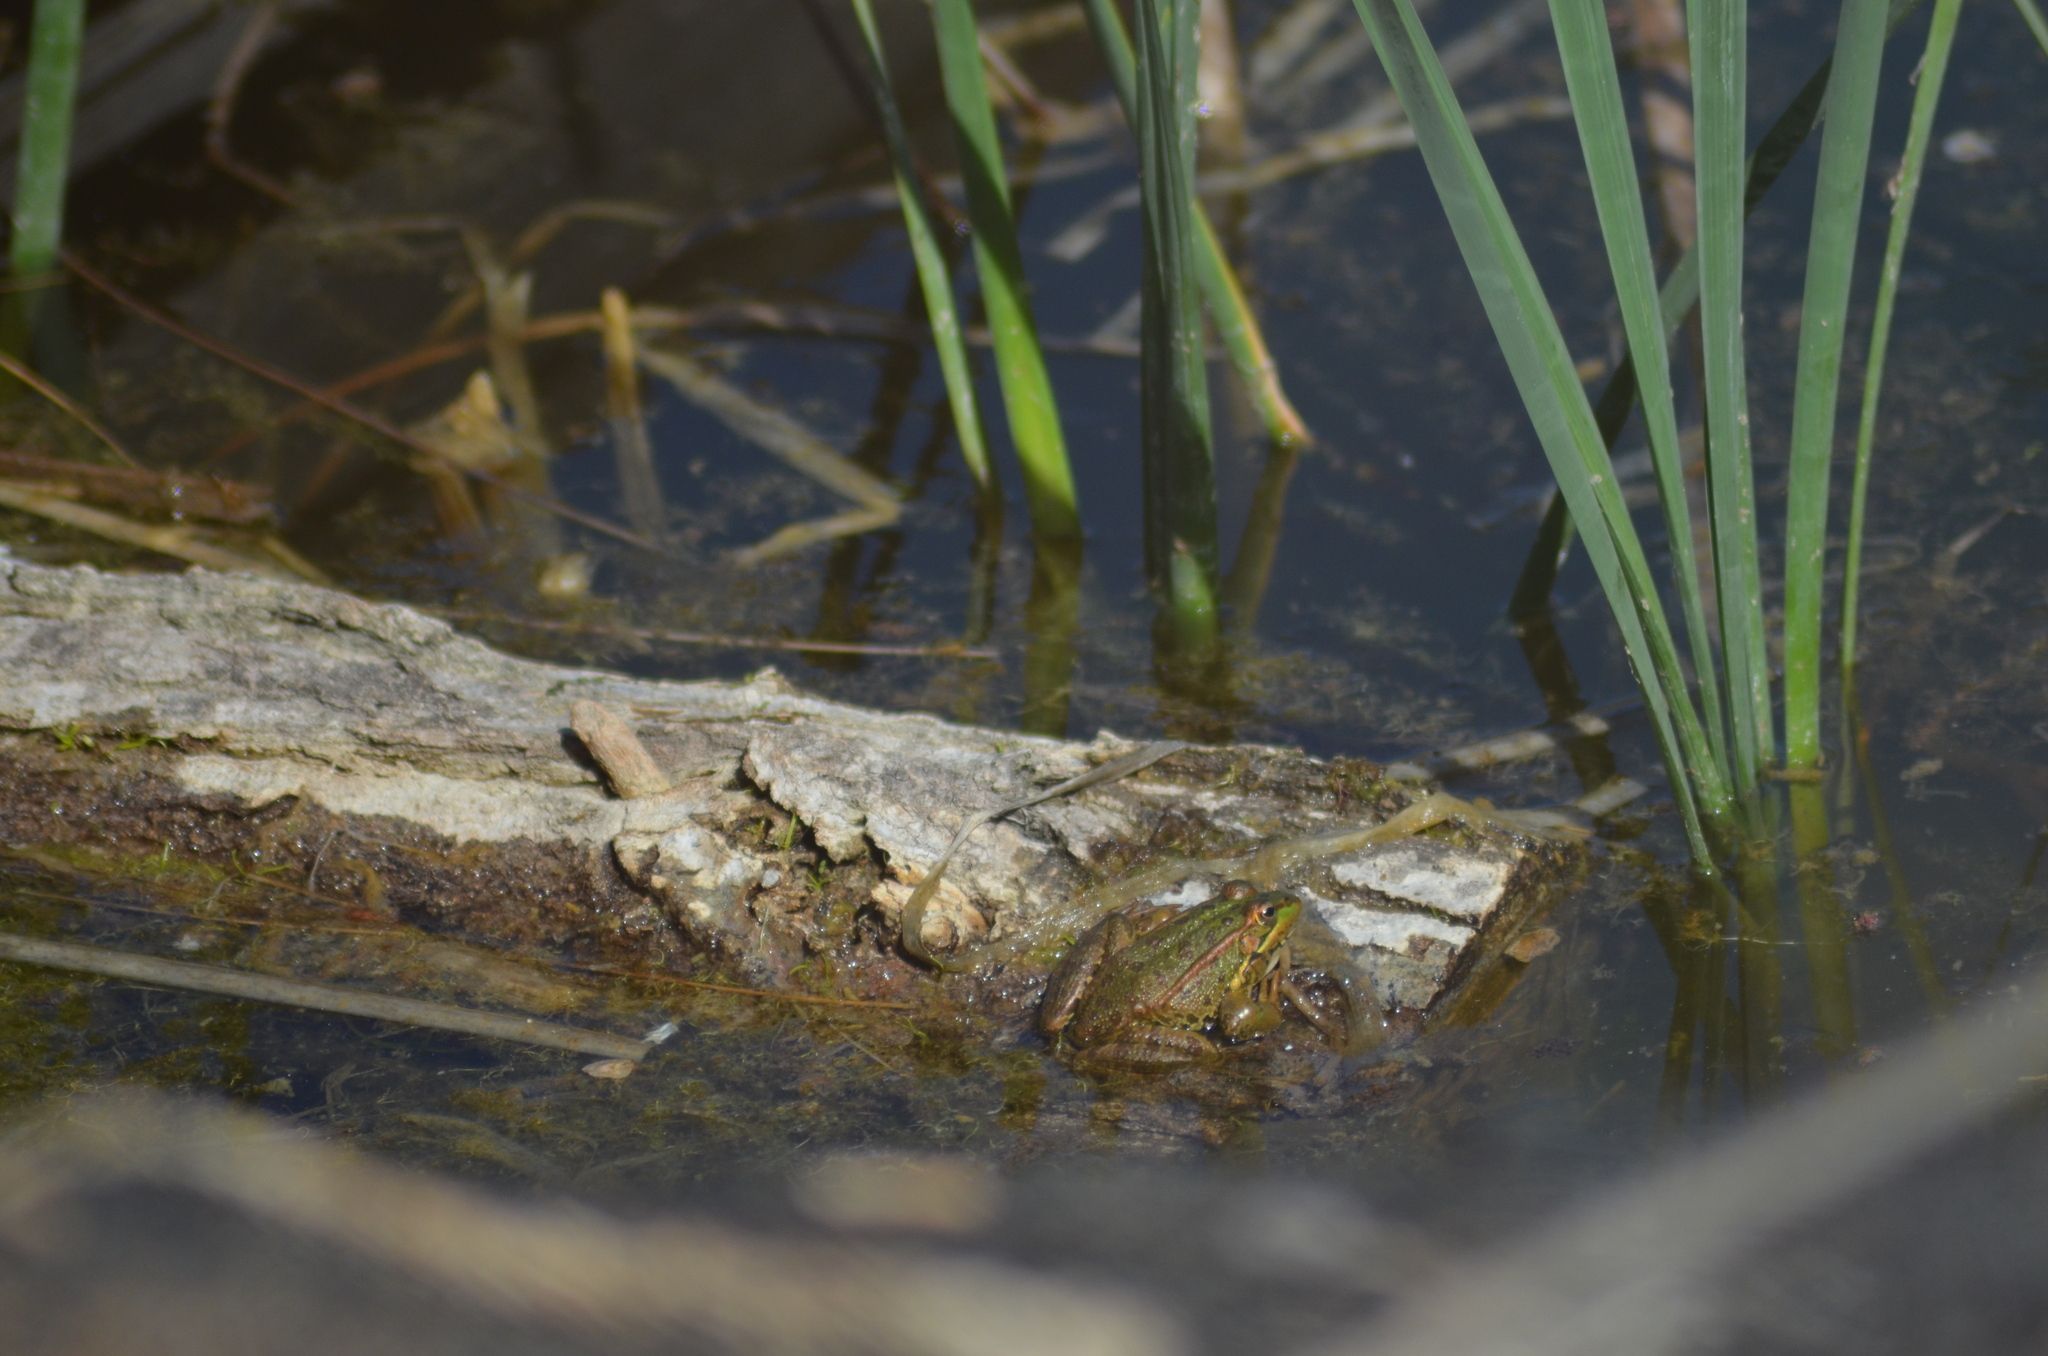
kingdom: Animalia
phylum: Chordata
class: Amphibia
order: Anura
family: Ranidae
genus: Pelophylax
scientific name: Pelophylax
